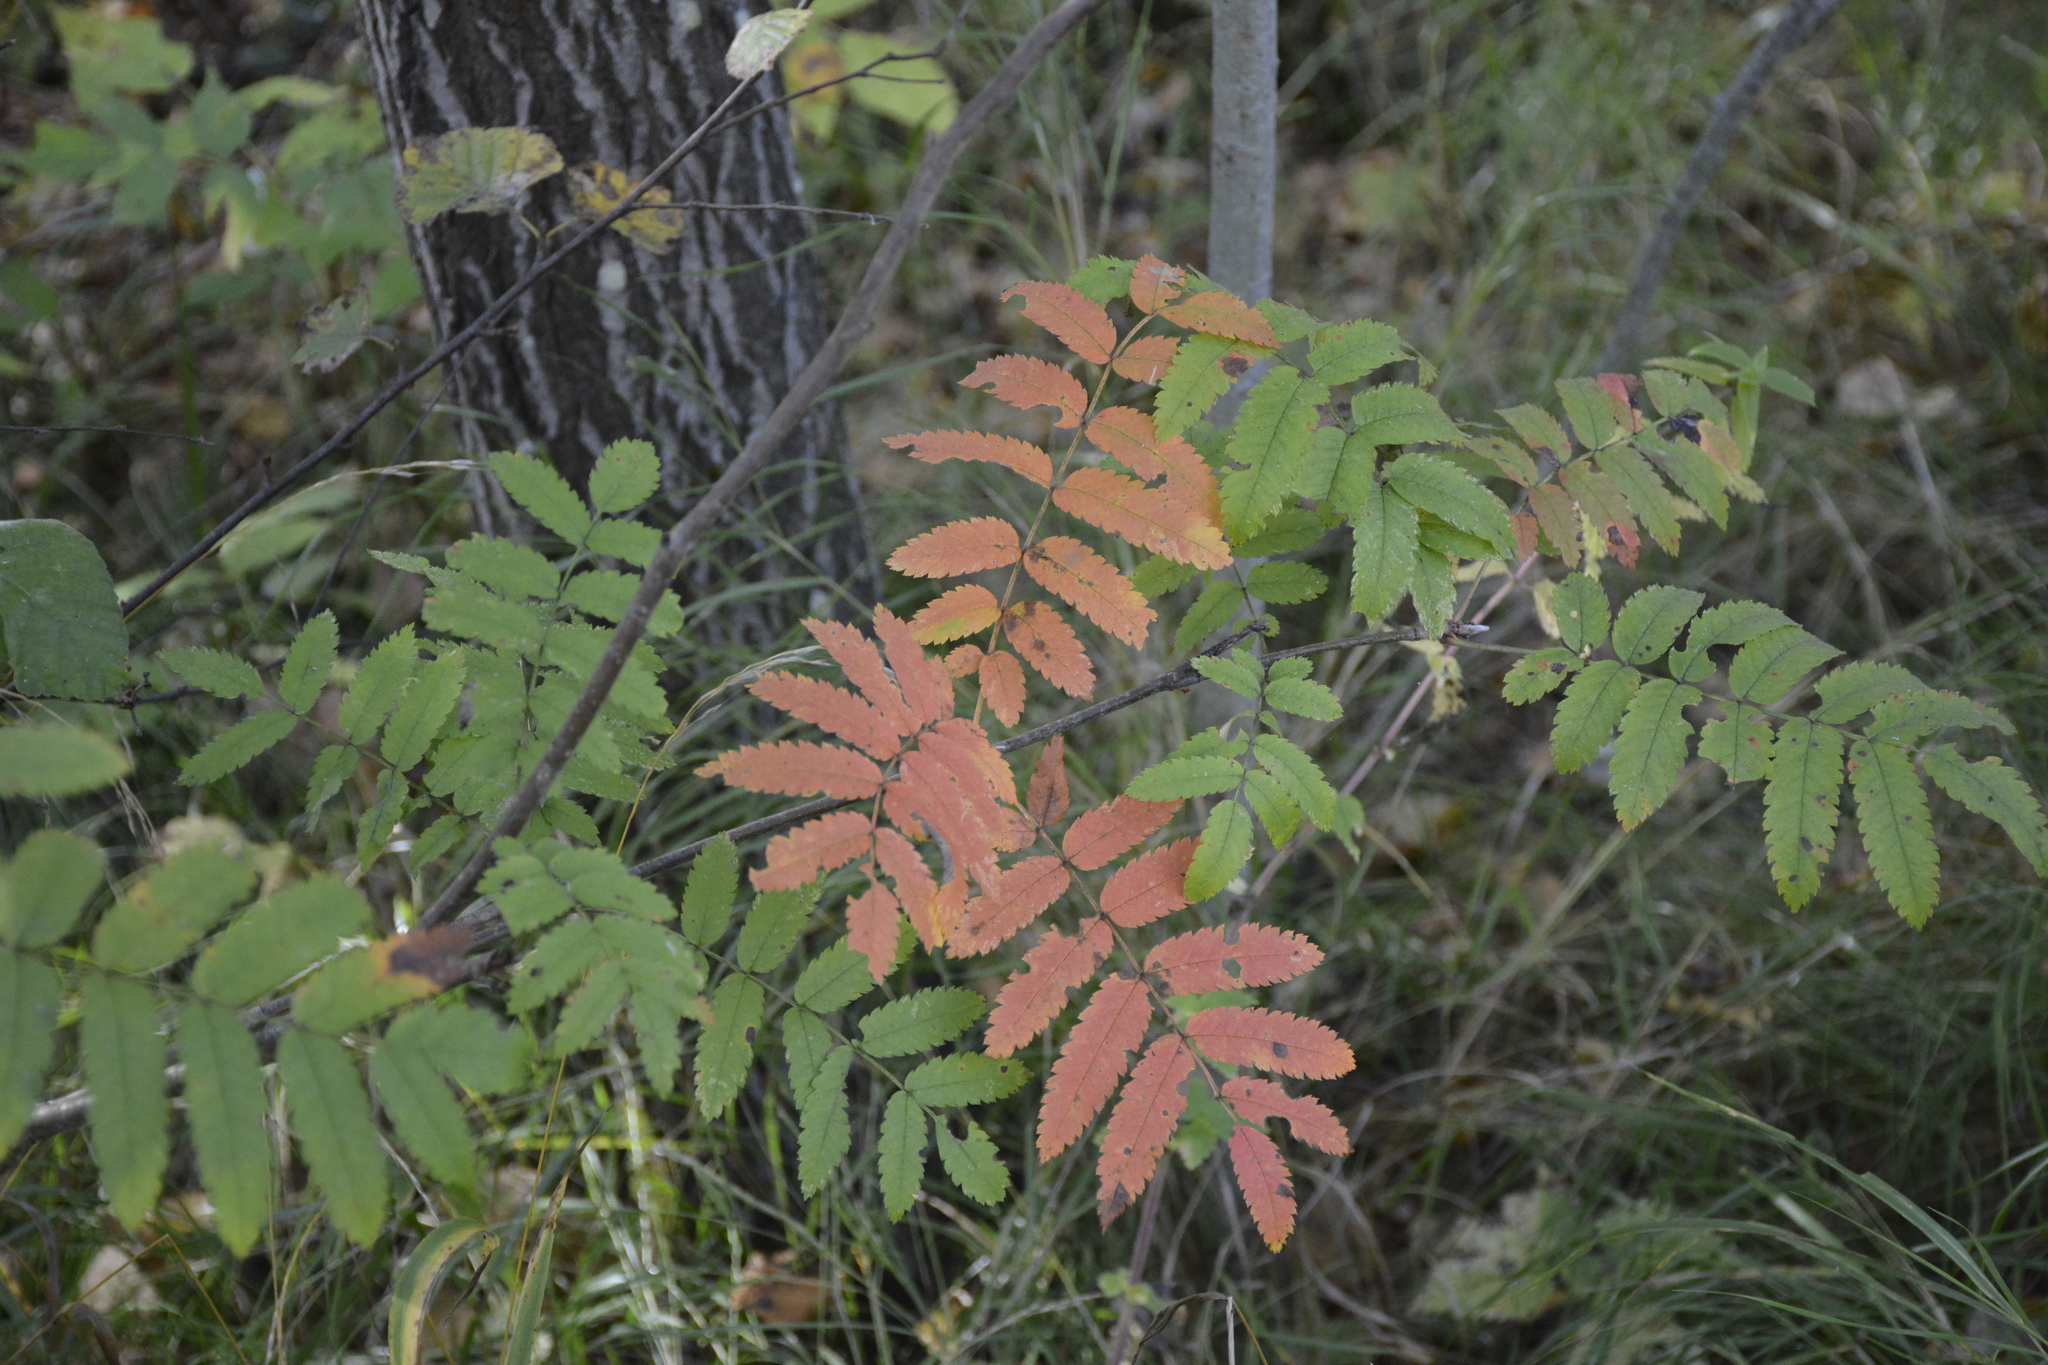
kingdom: Plantae
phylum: Tracheophyta
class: Magnoliopsida
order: Rosales
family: Rosaceae
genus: Sorbus
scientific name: Sorbus aucuparia
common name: Rowan
